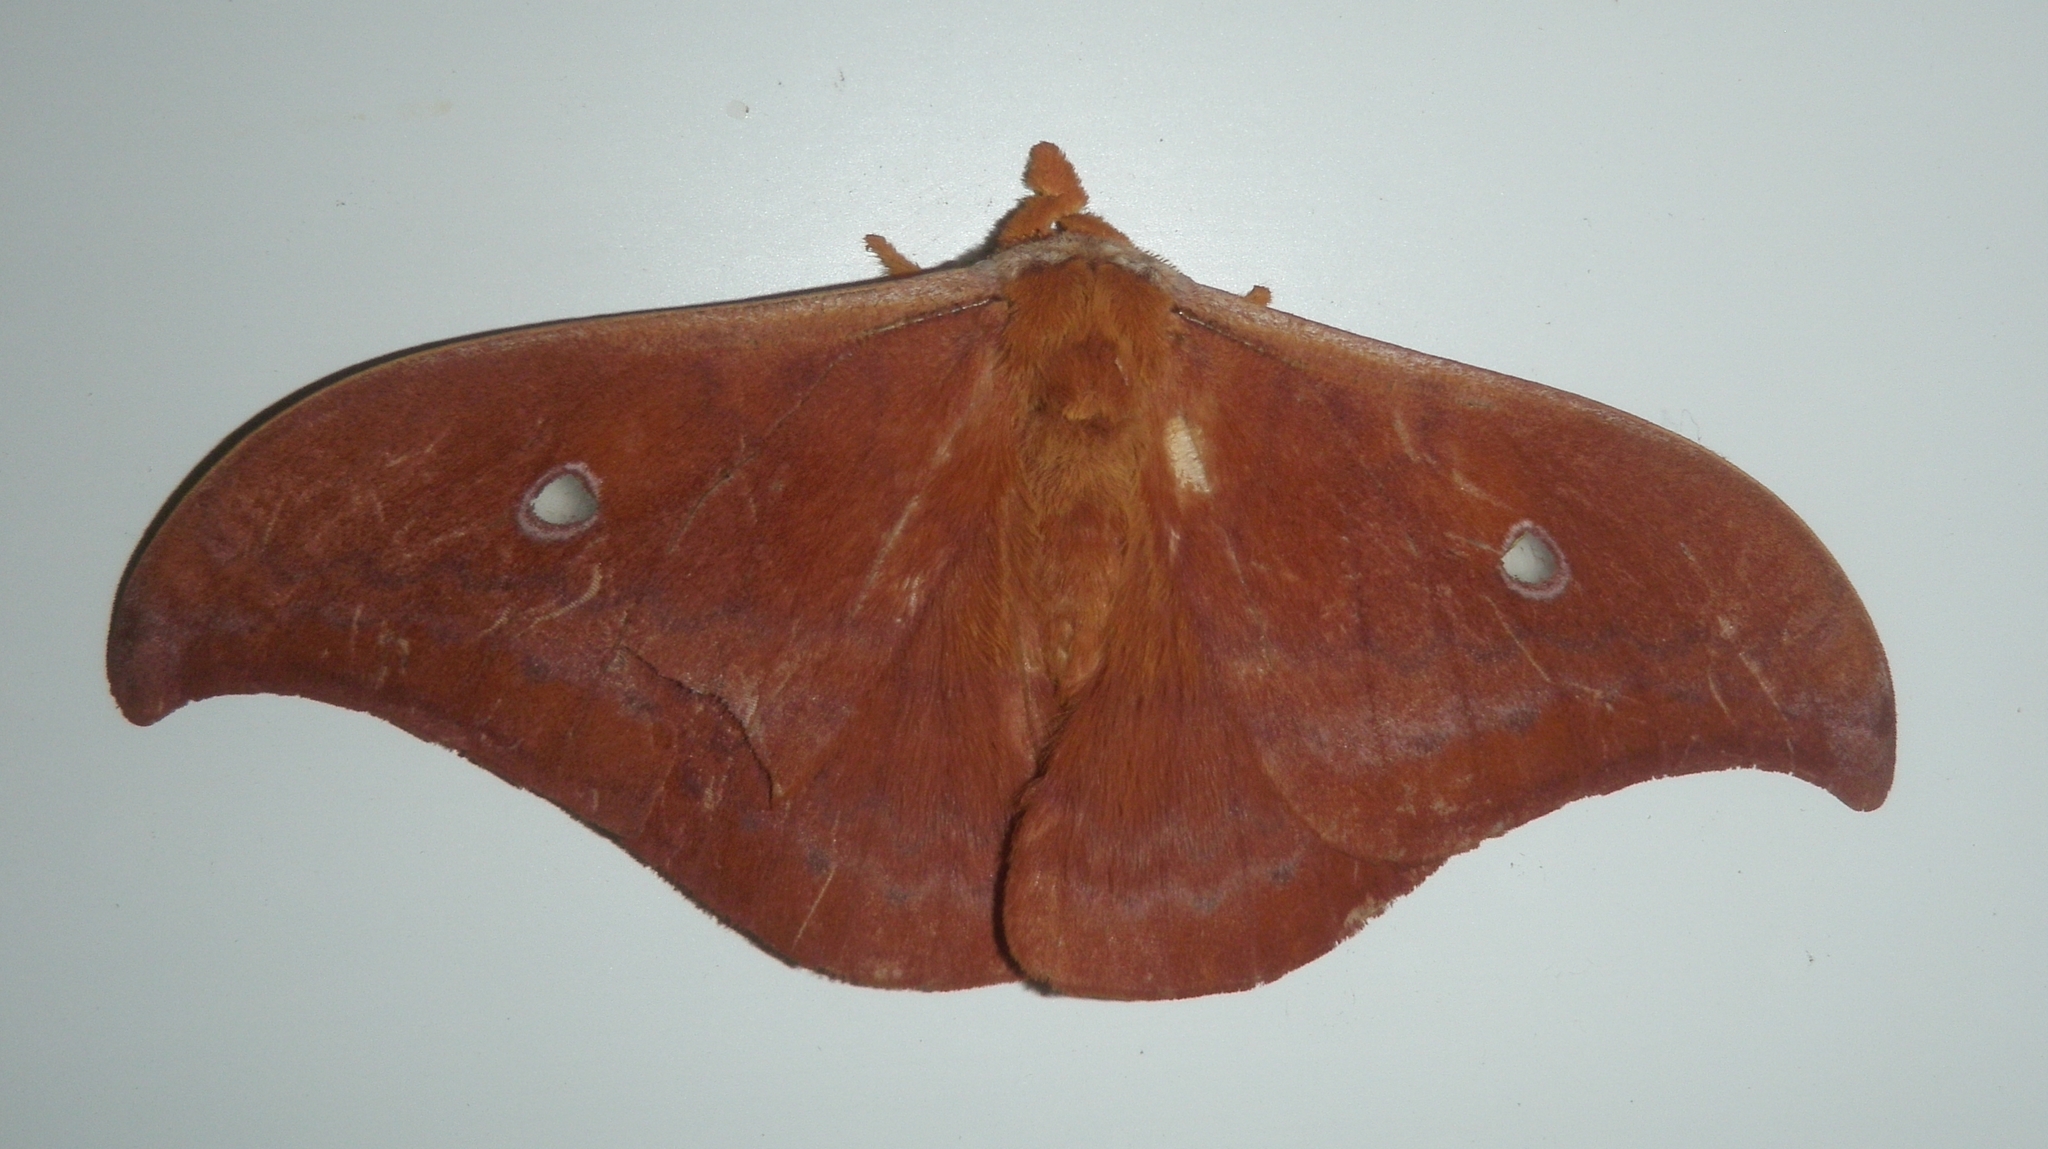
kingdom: Animalia
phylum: Arthropoda
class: Insecta
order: Lepidoptera
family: Saturniidae
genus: Syntherata
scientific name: Syntherata leonae
